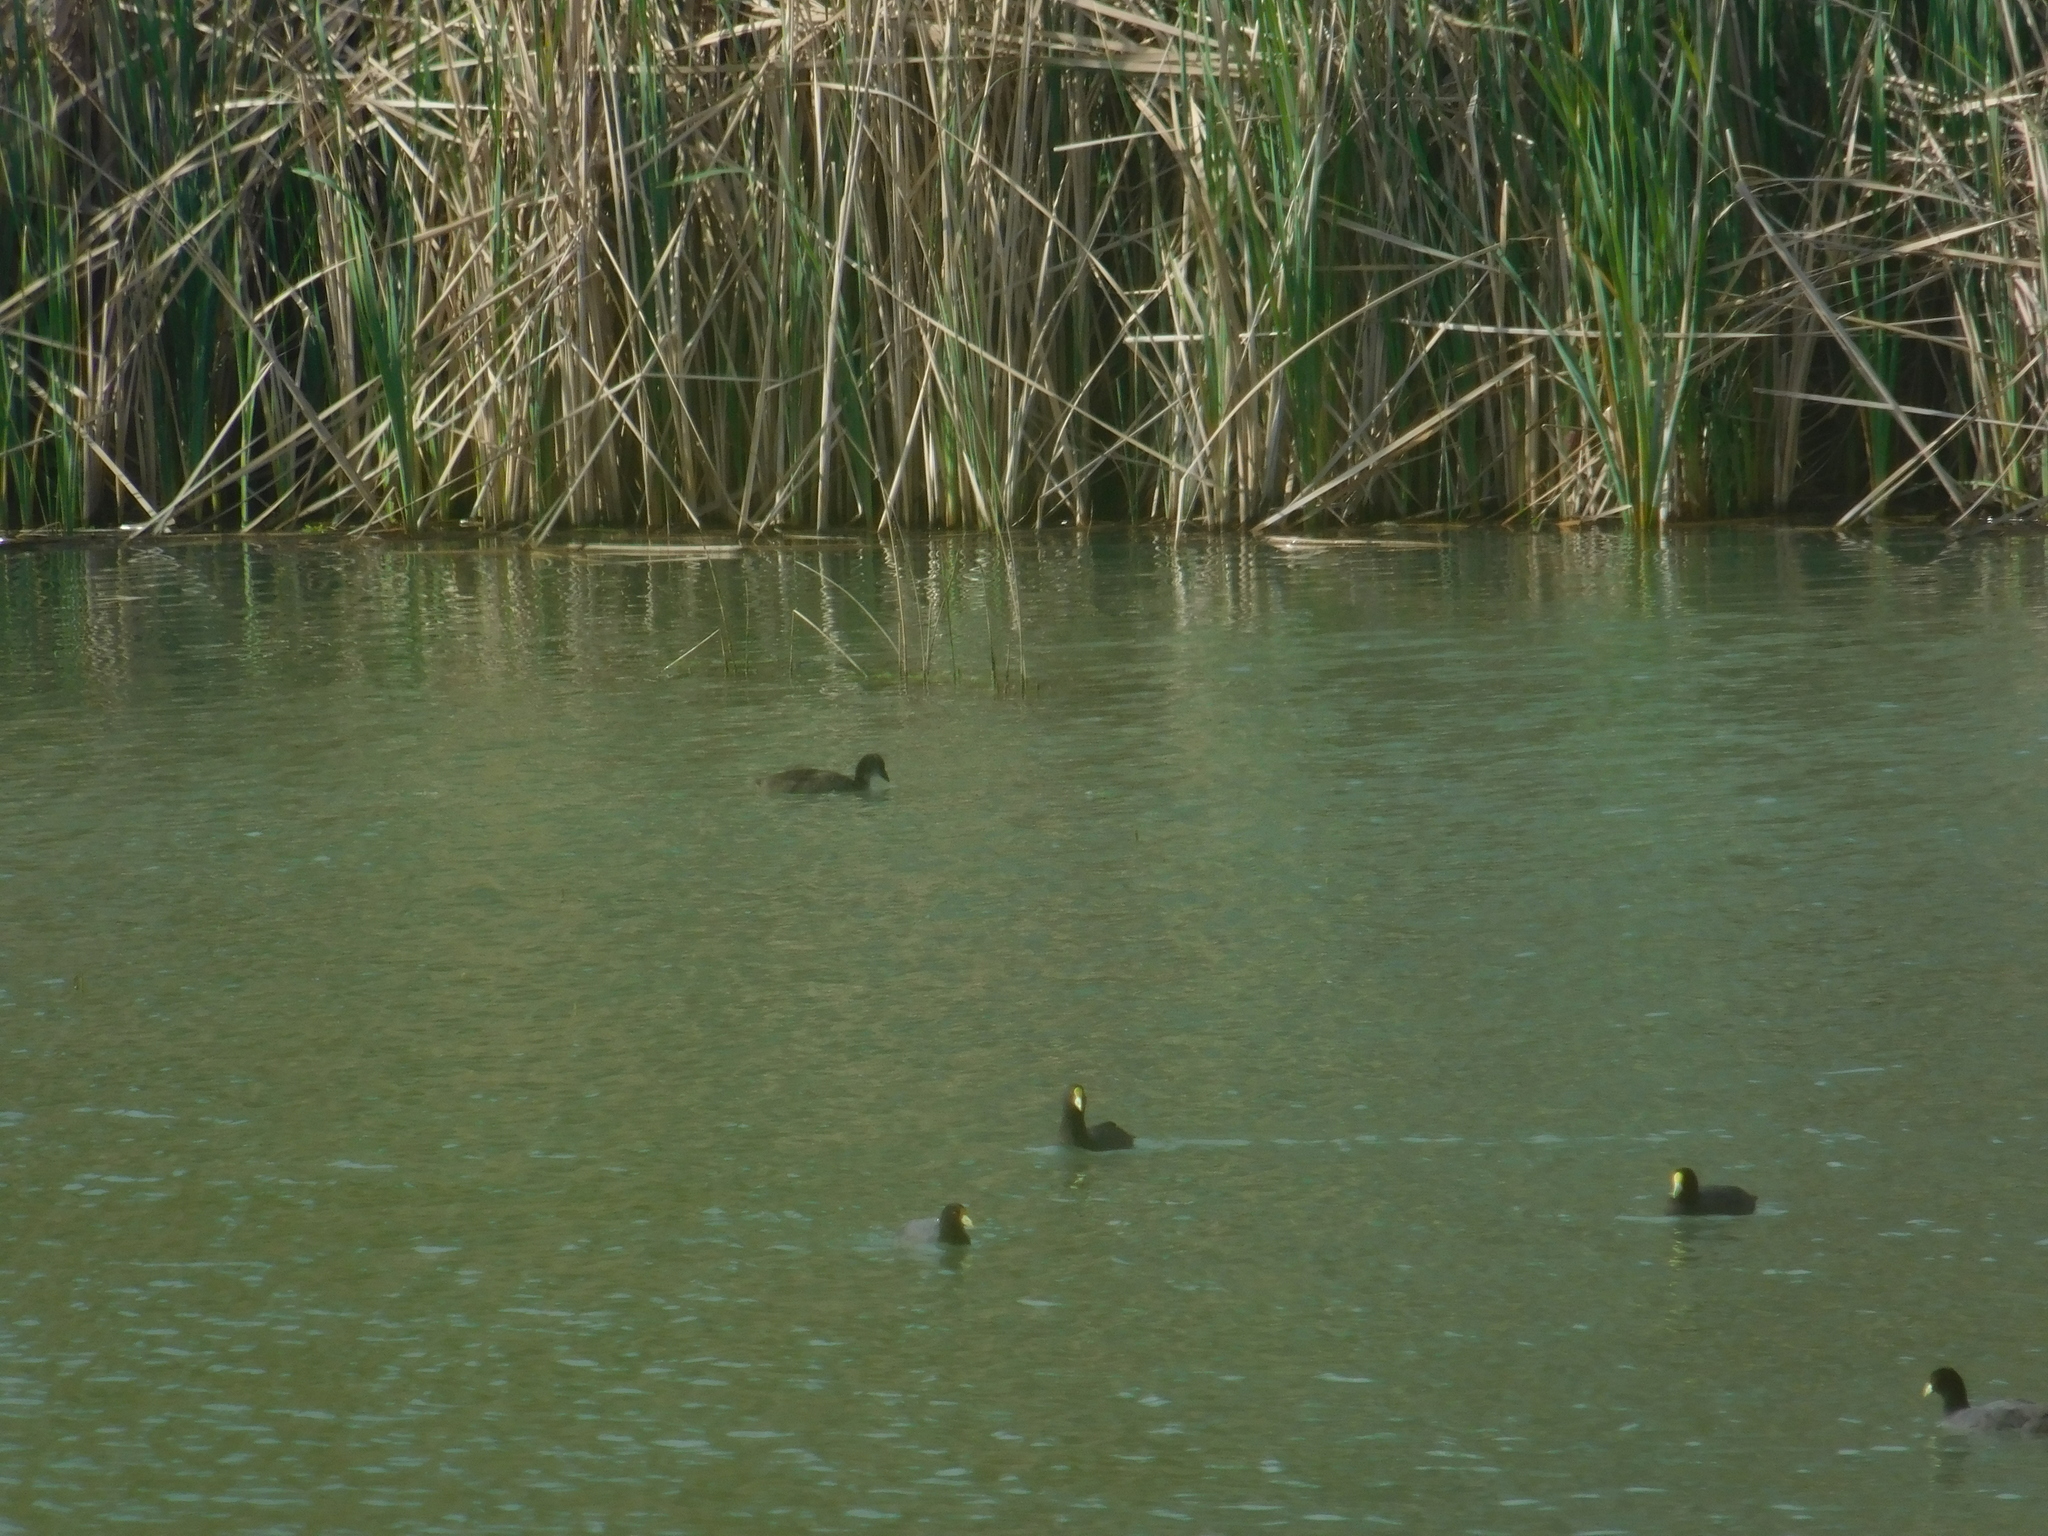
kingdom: Animalia
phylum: Chordata
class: Aves
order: Gruiformes
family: Rallidae
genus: Fulica
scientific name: Fulica leucoptera
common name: White-winged coot
